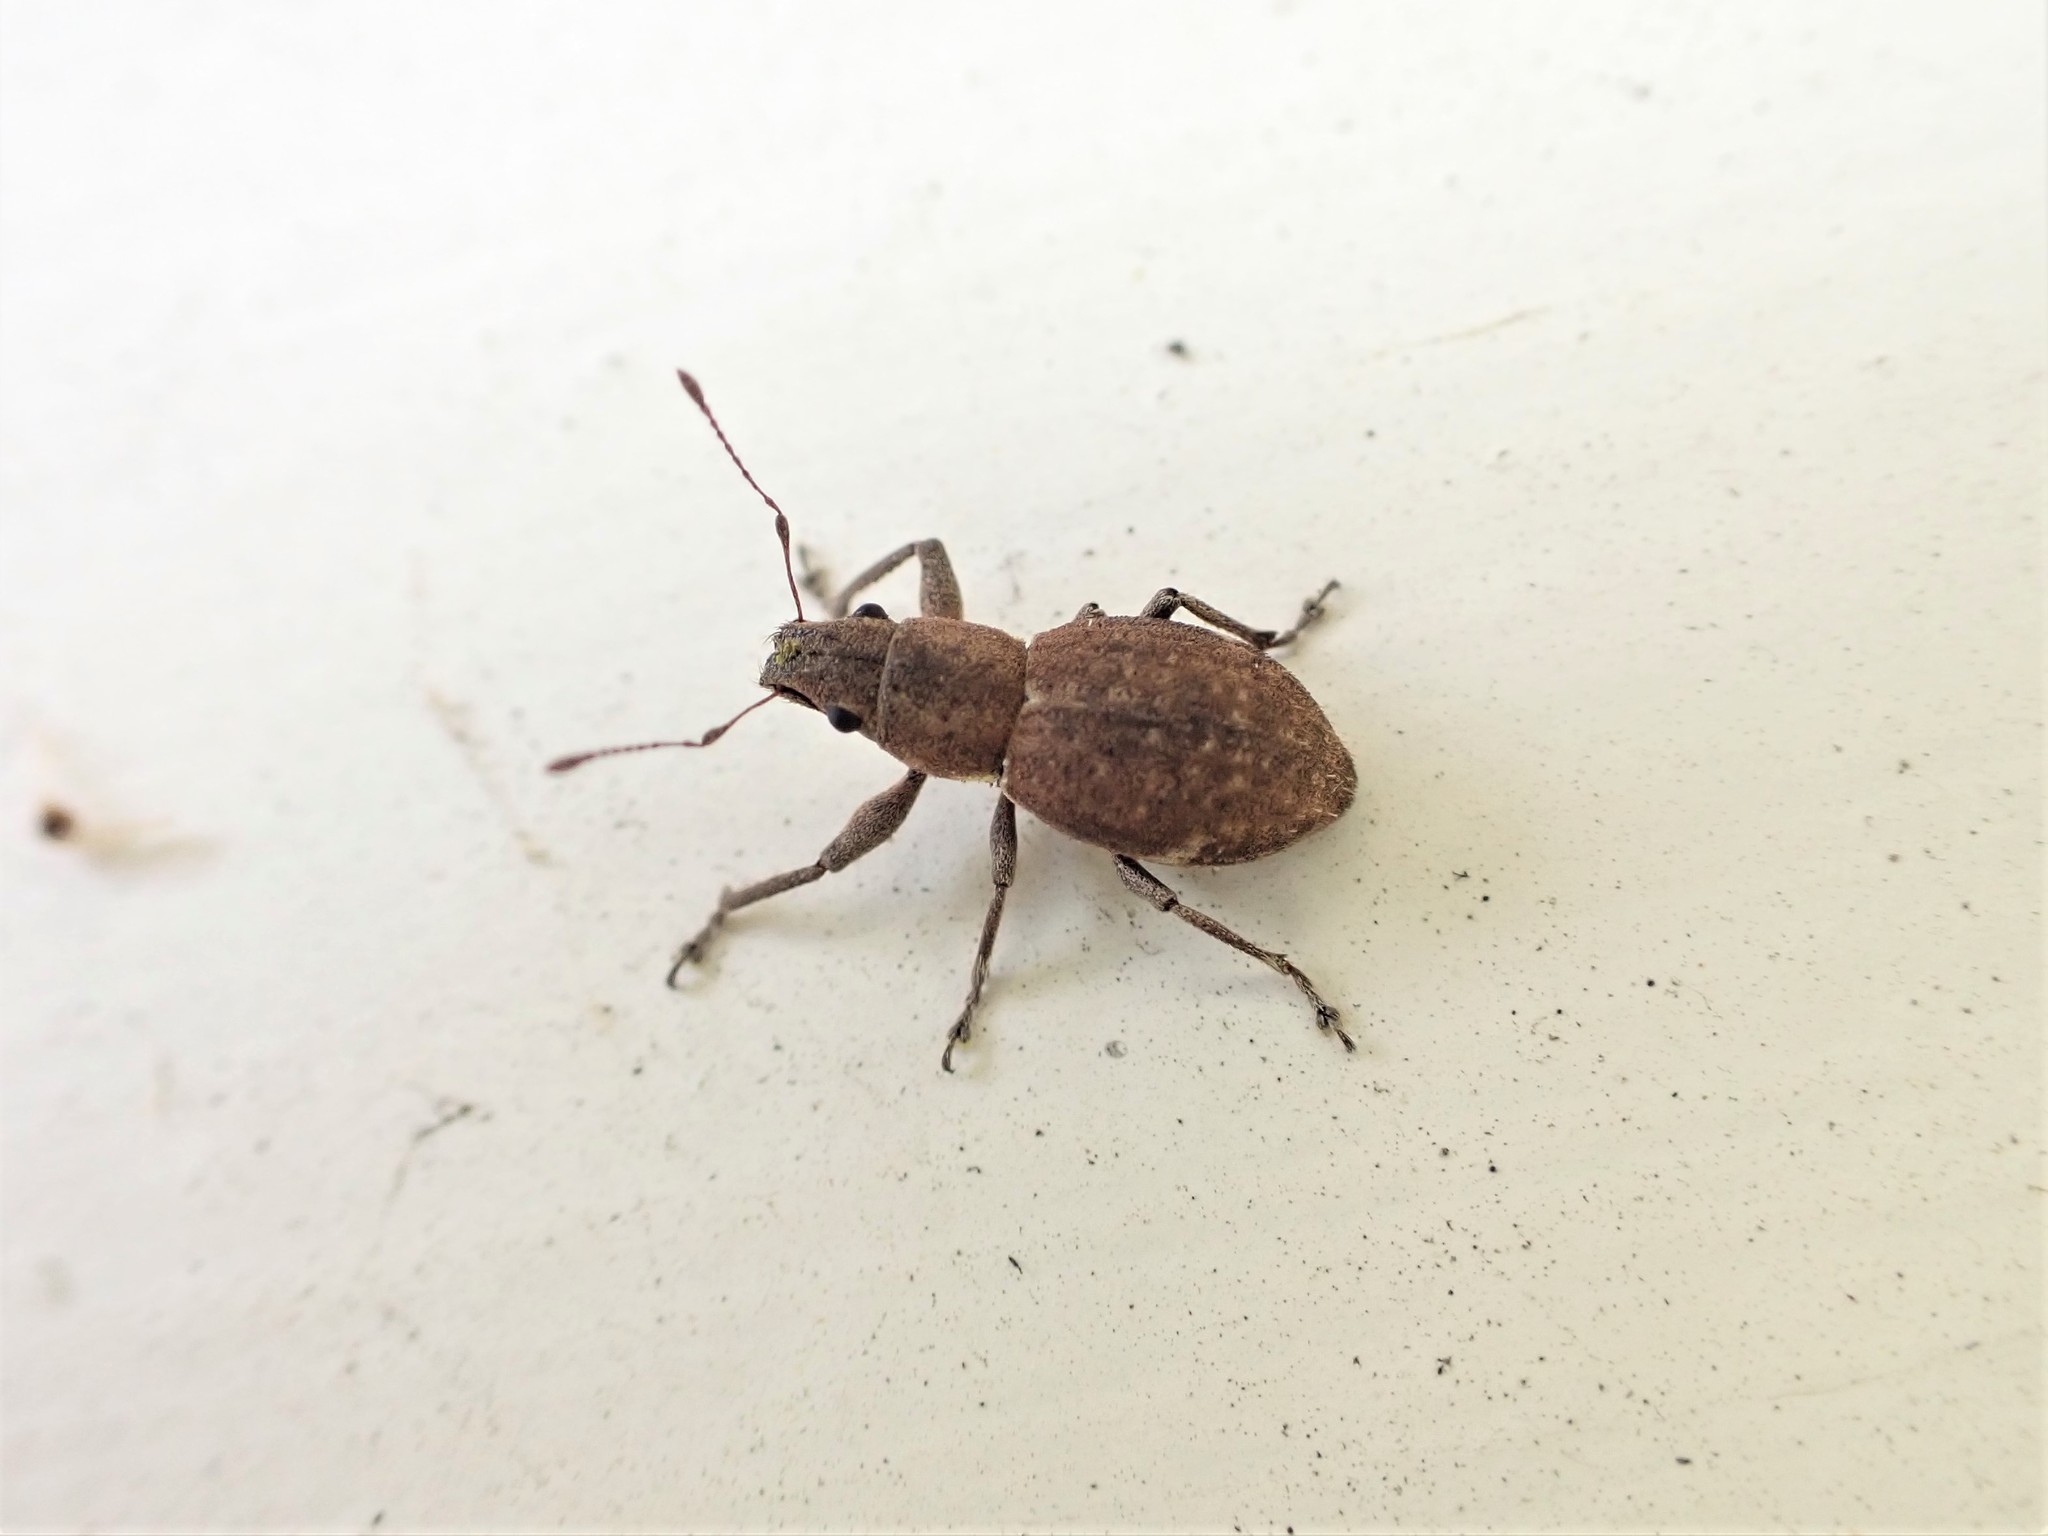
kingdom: Animalia
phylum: Arthropoda
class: Insecta
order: Coleoptera
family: Curculionidae
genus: Naupactus
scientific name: Naupactus cervinus
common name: Fuller rose beetle
